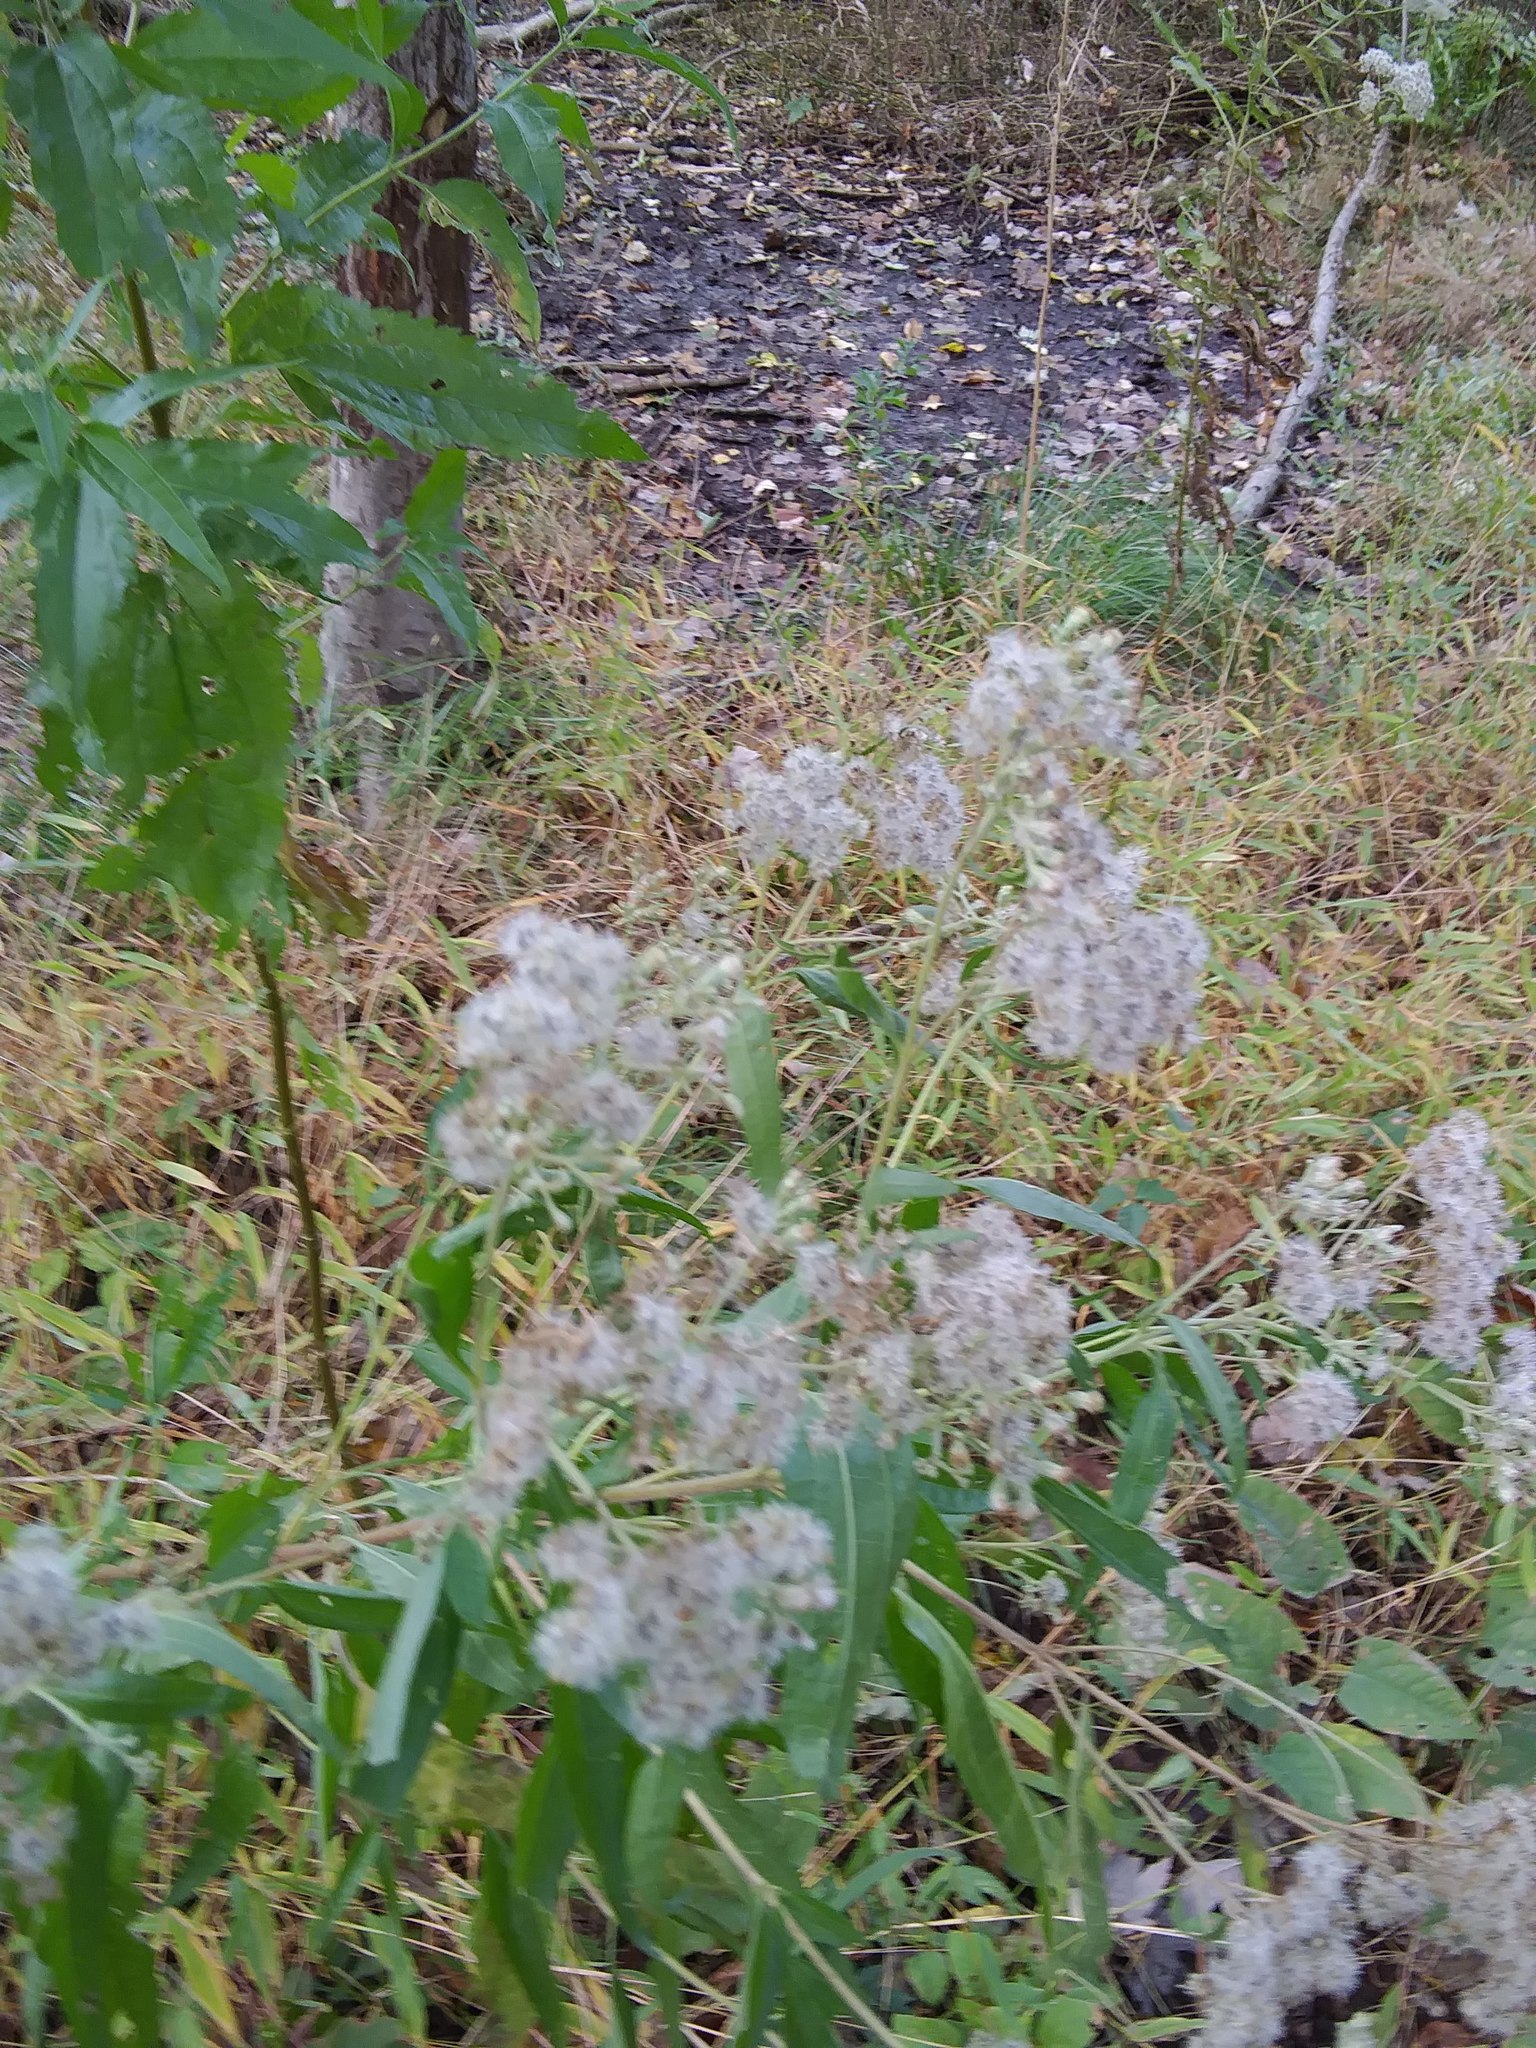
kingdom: Plantae
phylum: Tracheophyta
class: Magnoliopsida
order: Asterales
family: Asteraceae
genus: Eupatorium
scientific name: Eupatorium serotinum
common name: Late boneset
